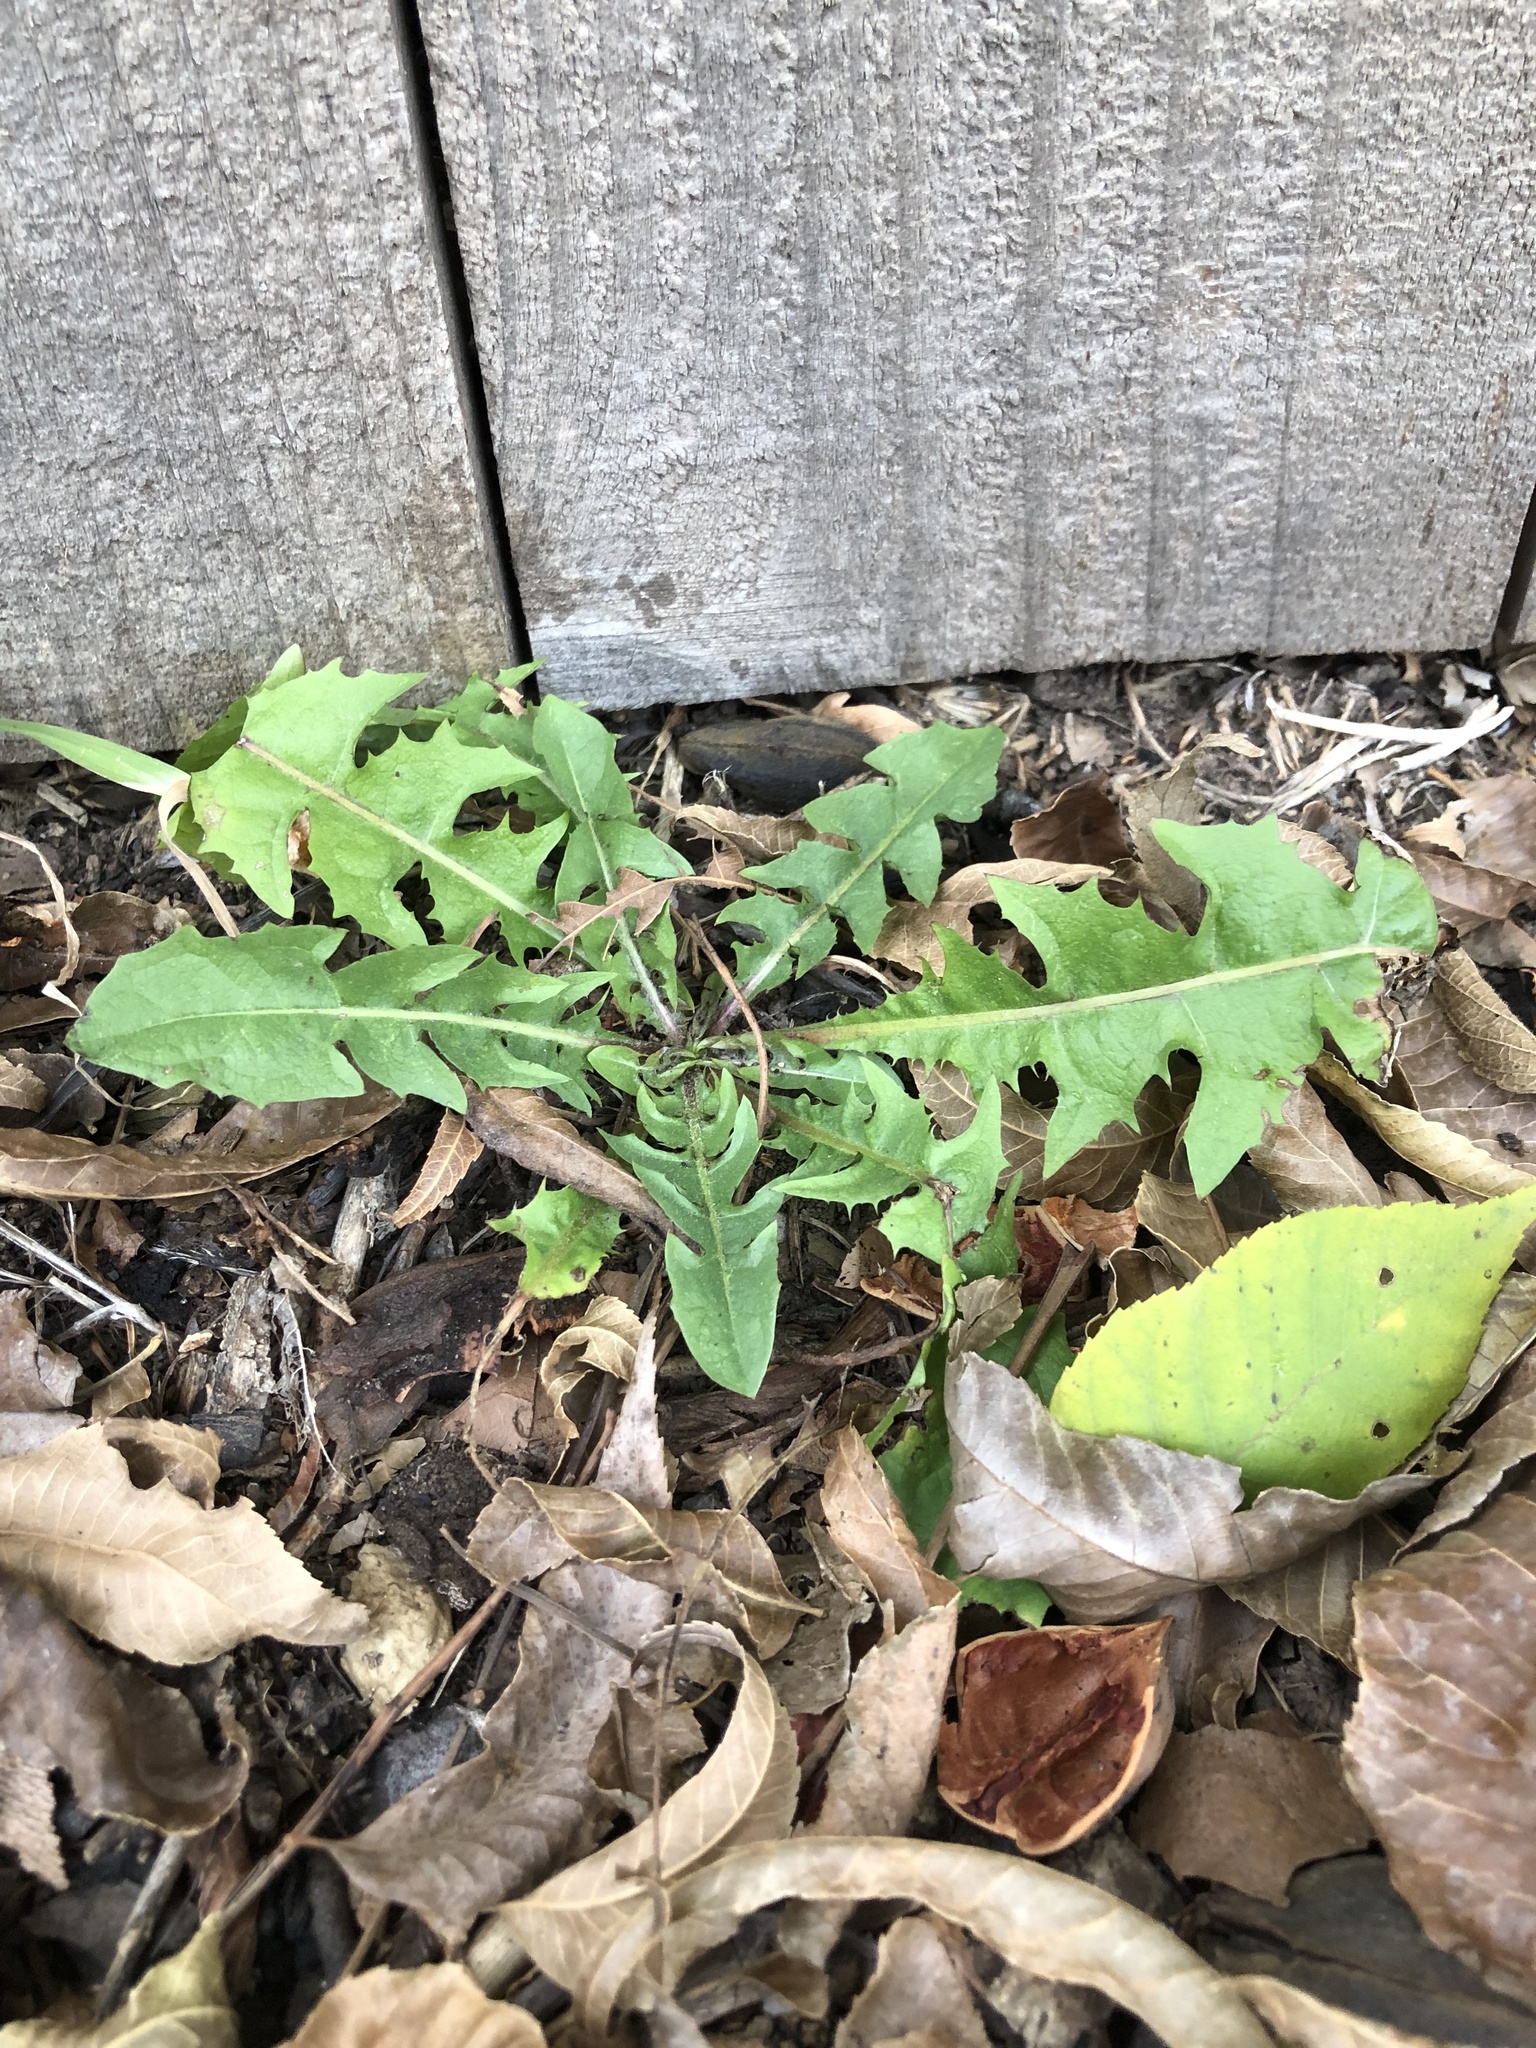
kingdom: Plantae
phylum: Tracheophyta
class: Magnoliopsida
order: Asterales
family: Asteraceae
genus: Taraxacum
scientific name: Taraxacum
